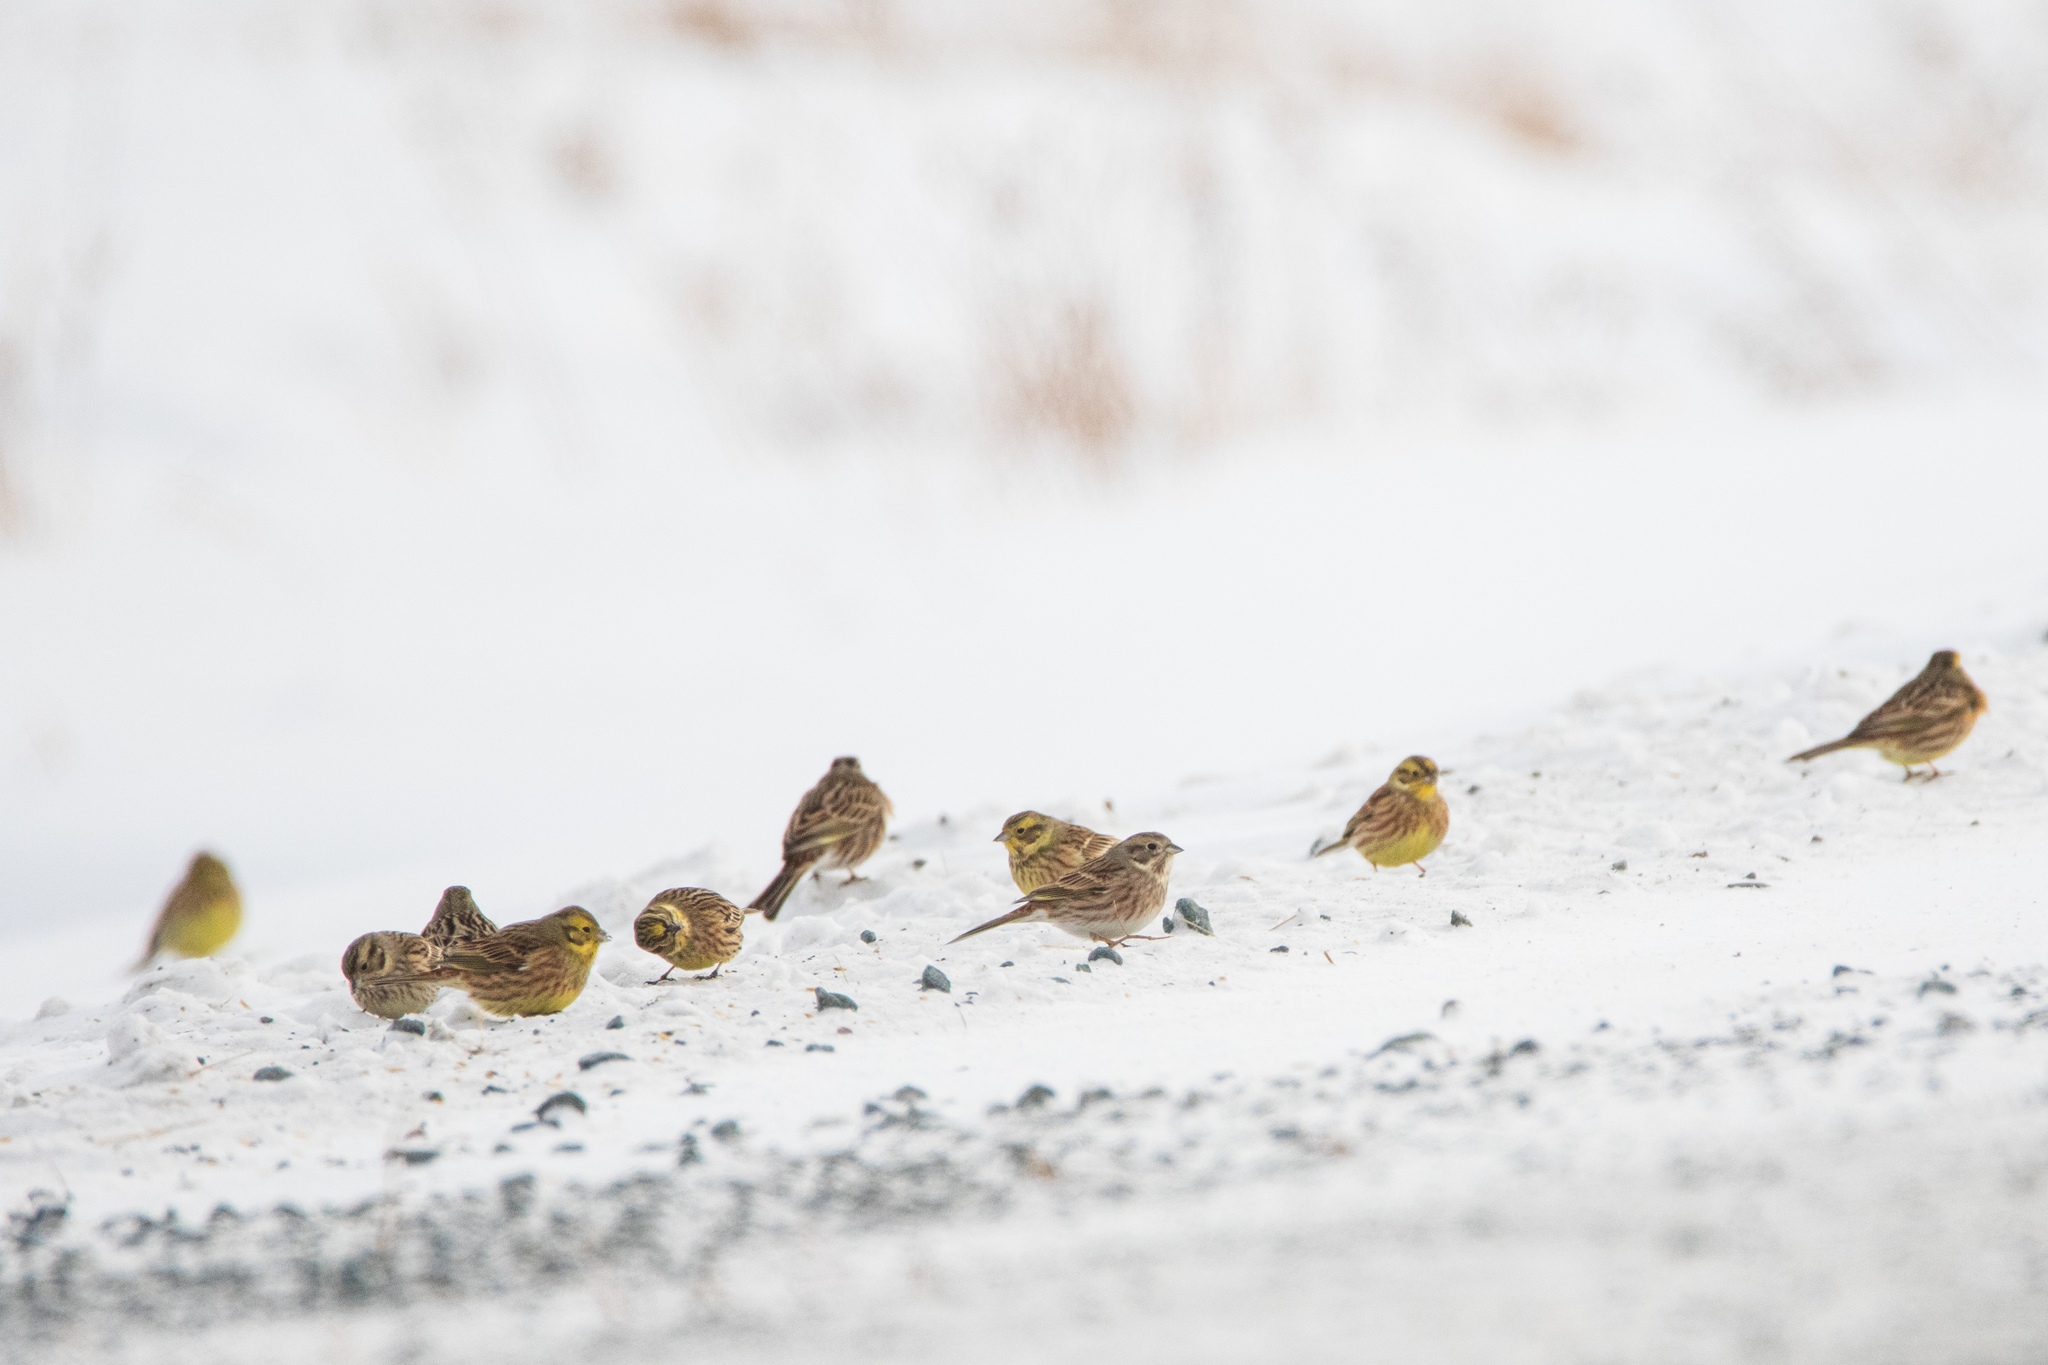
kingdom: Animalia
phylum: Chordata
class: Aves
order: Passeriformes
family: Emberizidae
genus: Emberiza
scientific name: Emberiza citrinella
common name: Yellowhammer
